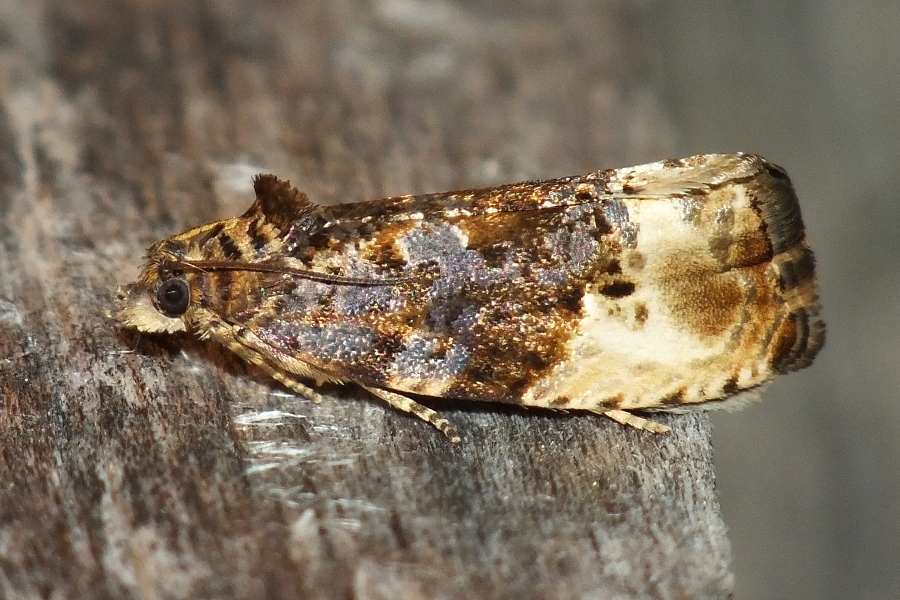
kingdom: Animalia
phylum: Arthropoda
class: Insecta
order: Lepidoptera
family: Tortricidae
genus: Hedya
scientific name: Hedya nubiferana
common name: Marbled orchard tortrix
